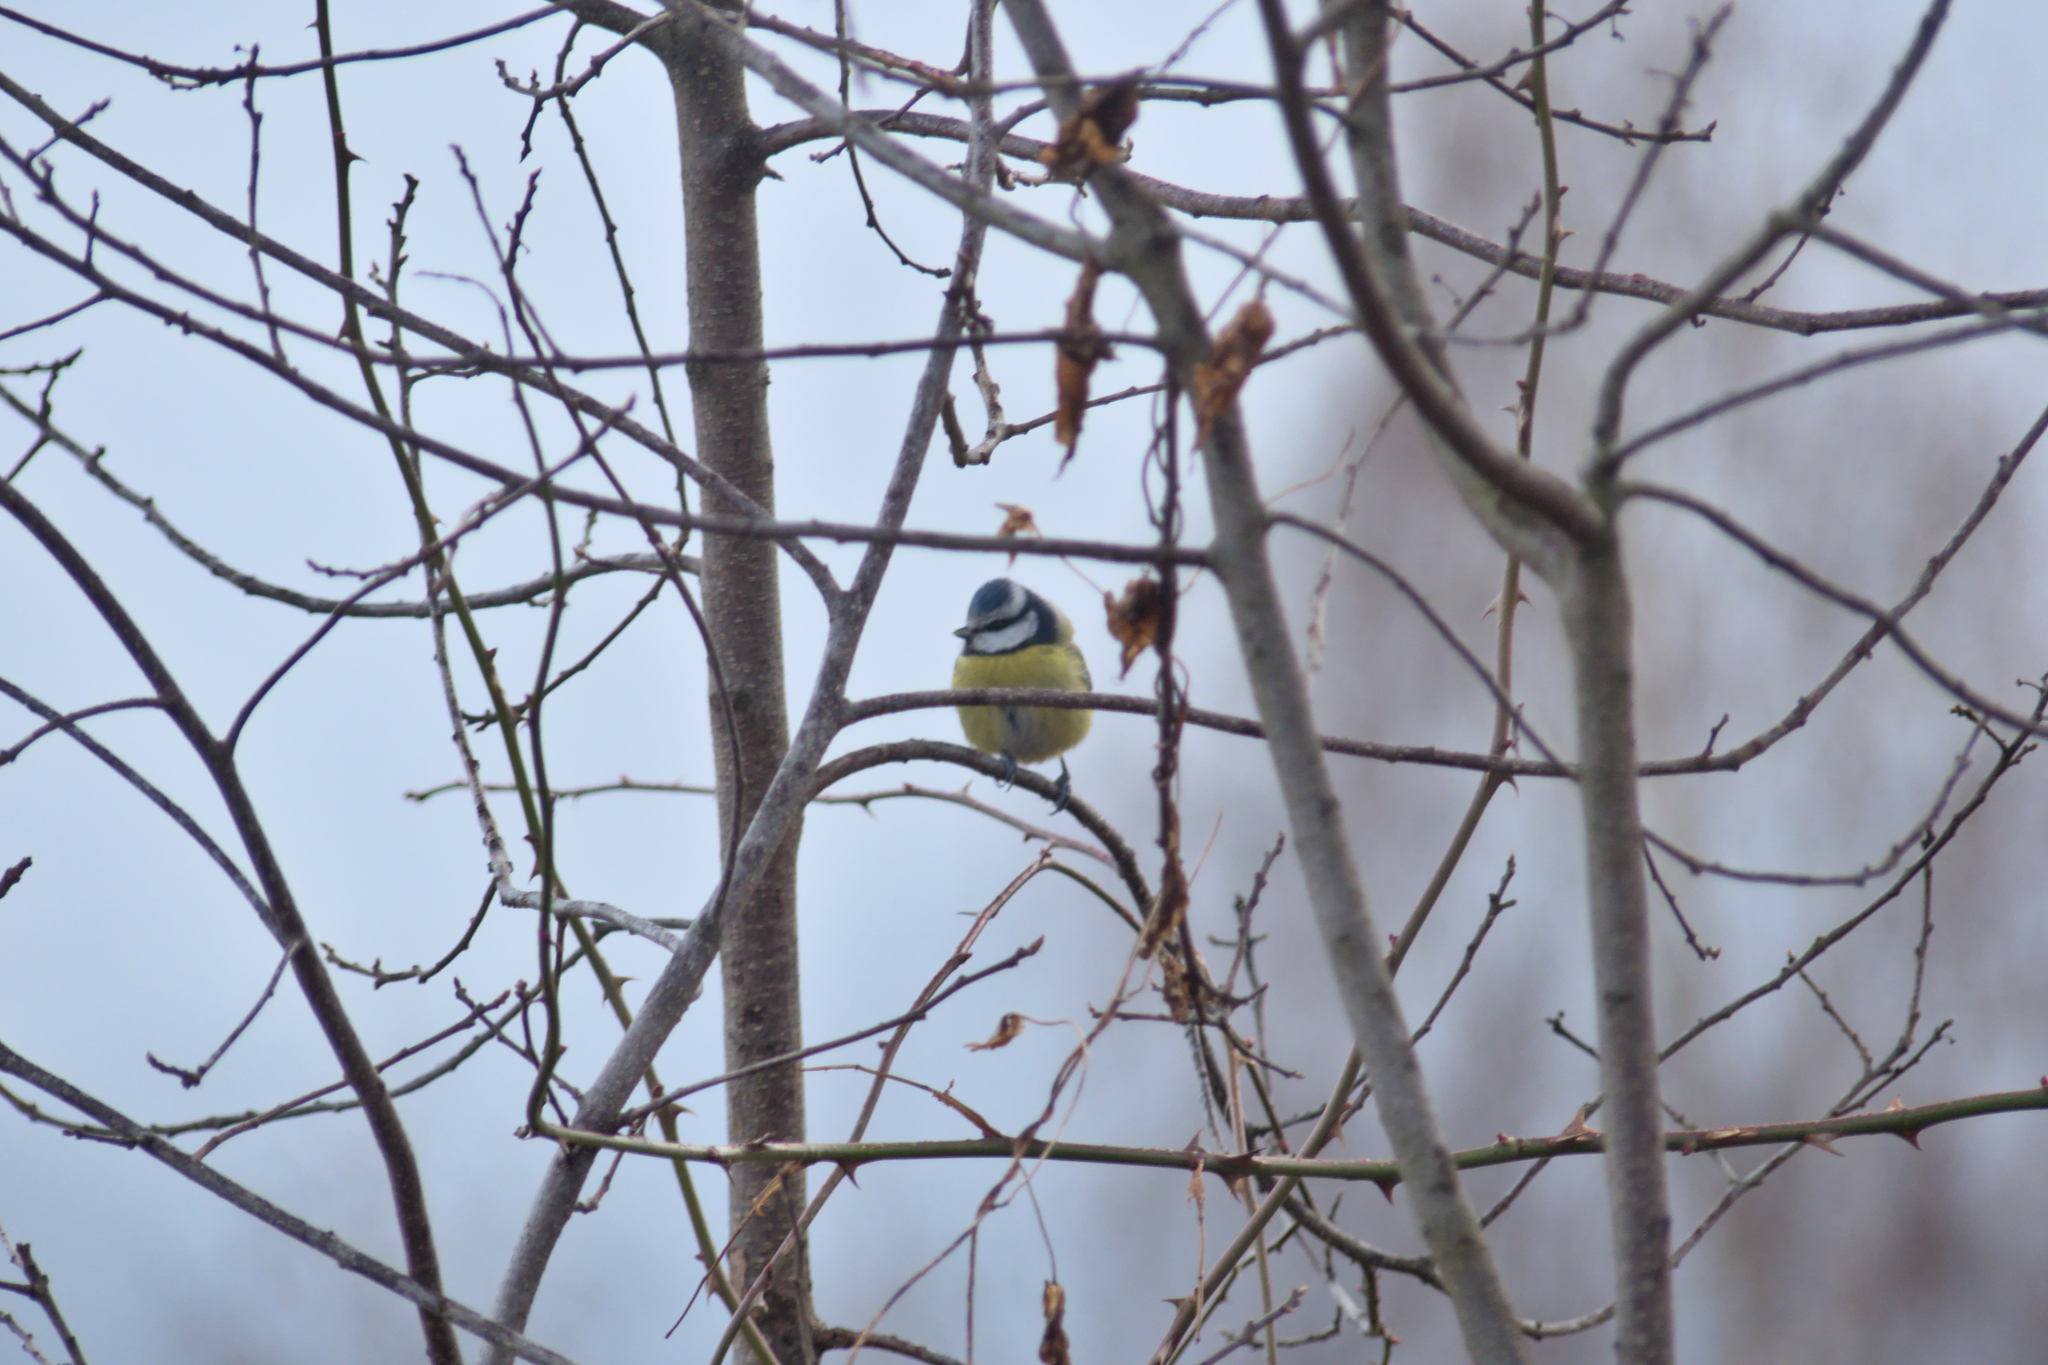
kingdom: Animalia
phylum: Chordata
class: Aves
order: Passeriformes
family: Paridae
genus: Cyanistes
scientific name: Cyanistes caeruleus
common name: Eurasian blue tit
